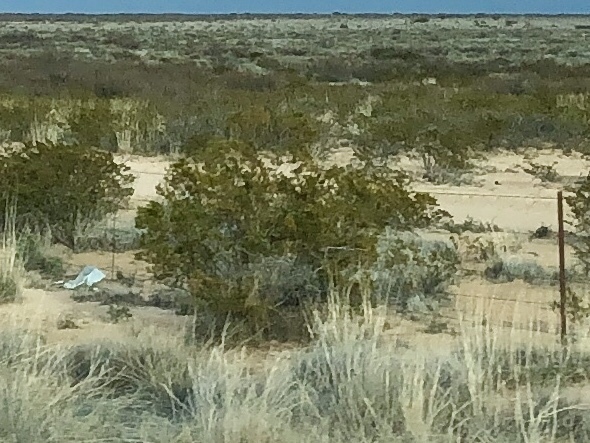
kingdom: Plantae
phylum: Tracheophyta
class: Magnoliopsida
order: Zygophyllales
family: Zygophyllaceae
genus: Larrea
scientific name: Larrea tridentata
